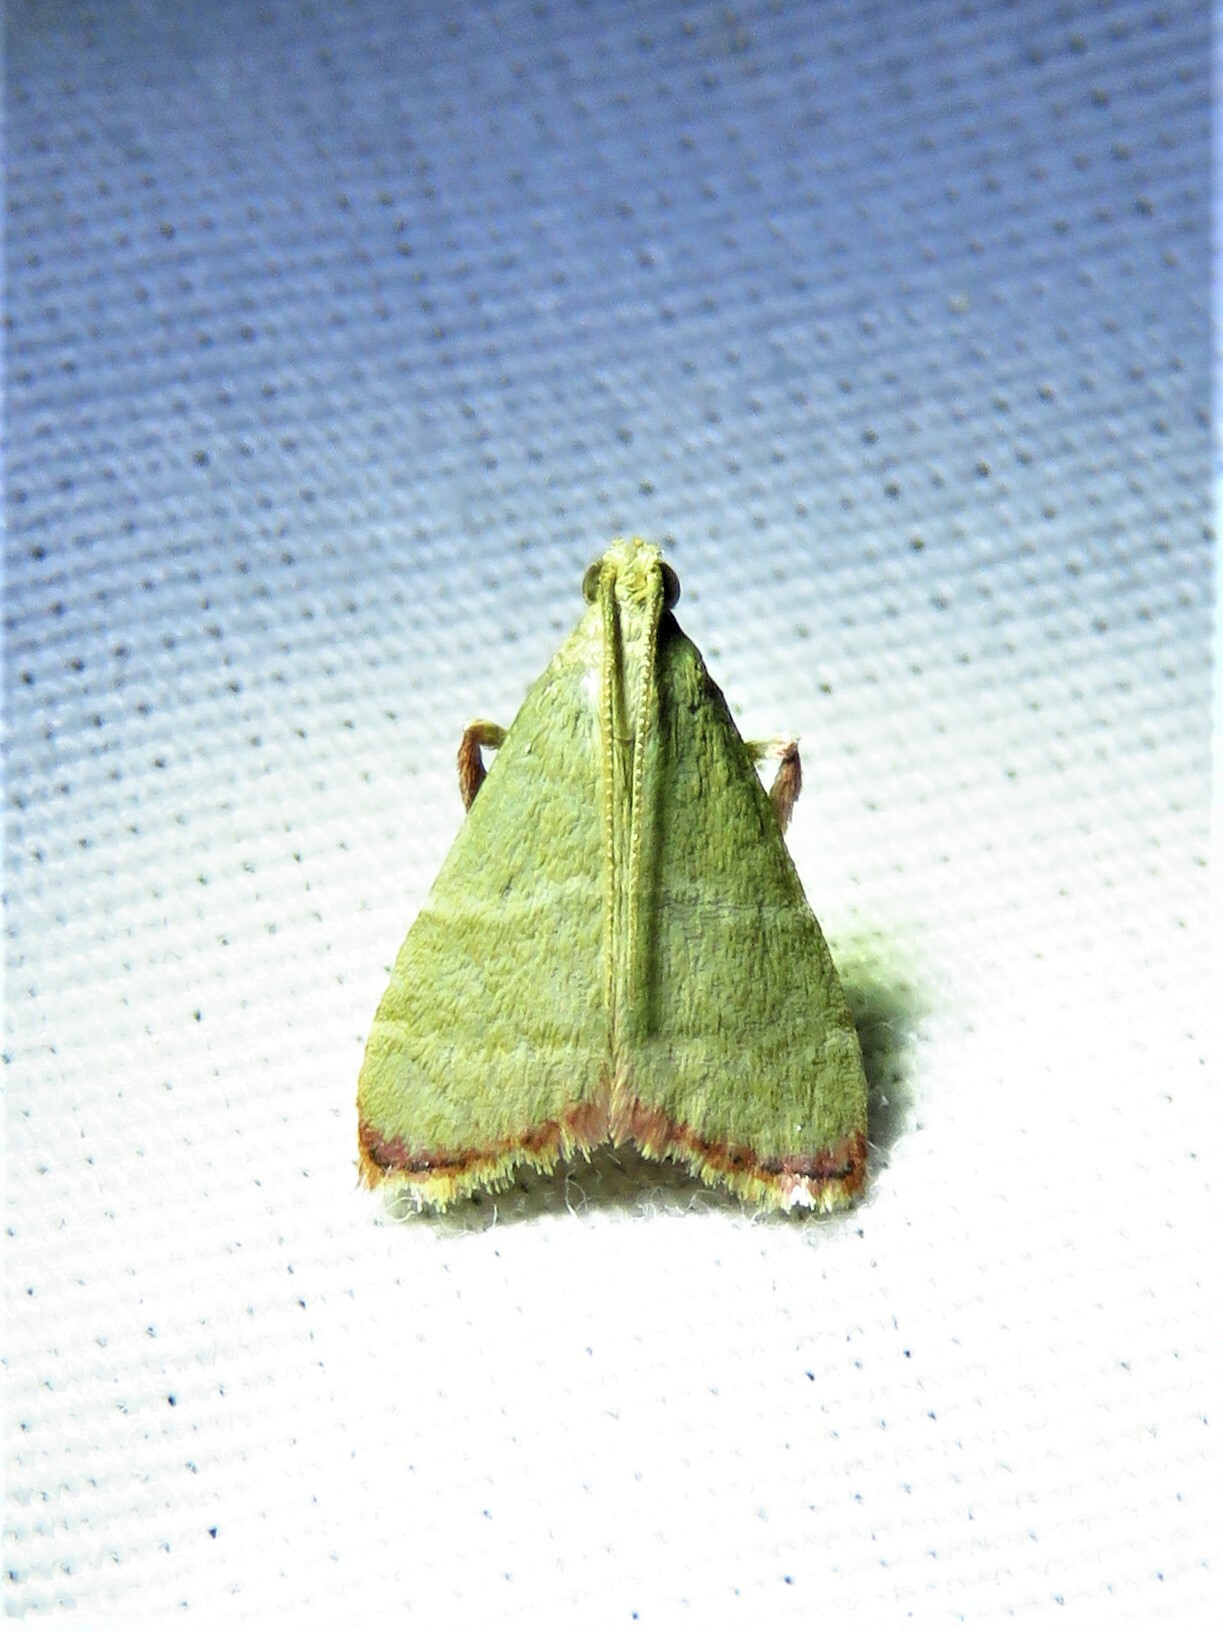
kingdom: Animalia
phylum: Arthropoda
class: Insecta
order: Lepidoptera
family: Pyralidae
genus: Arta
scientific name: Arta olivalis
